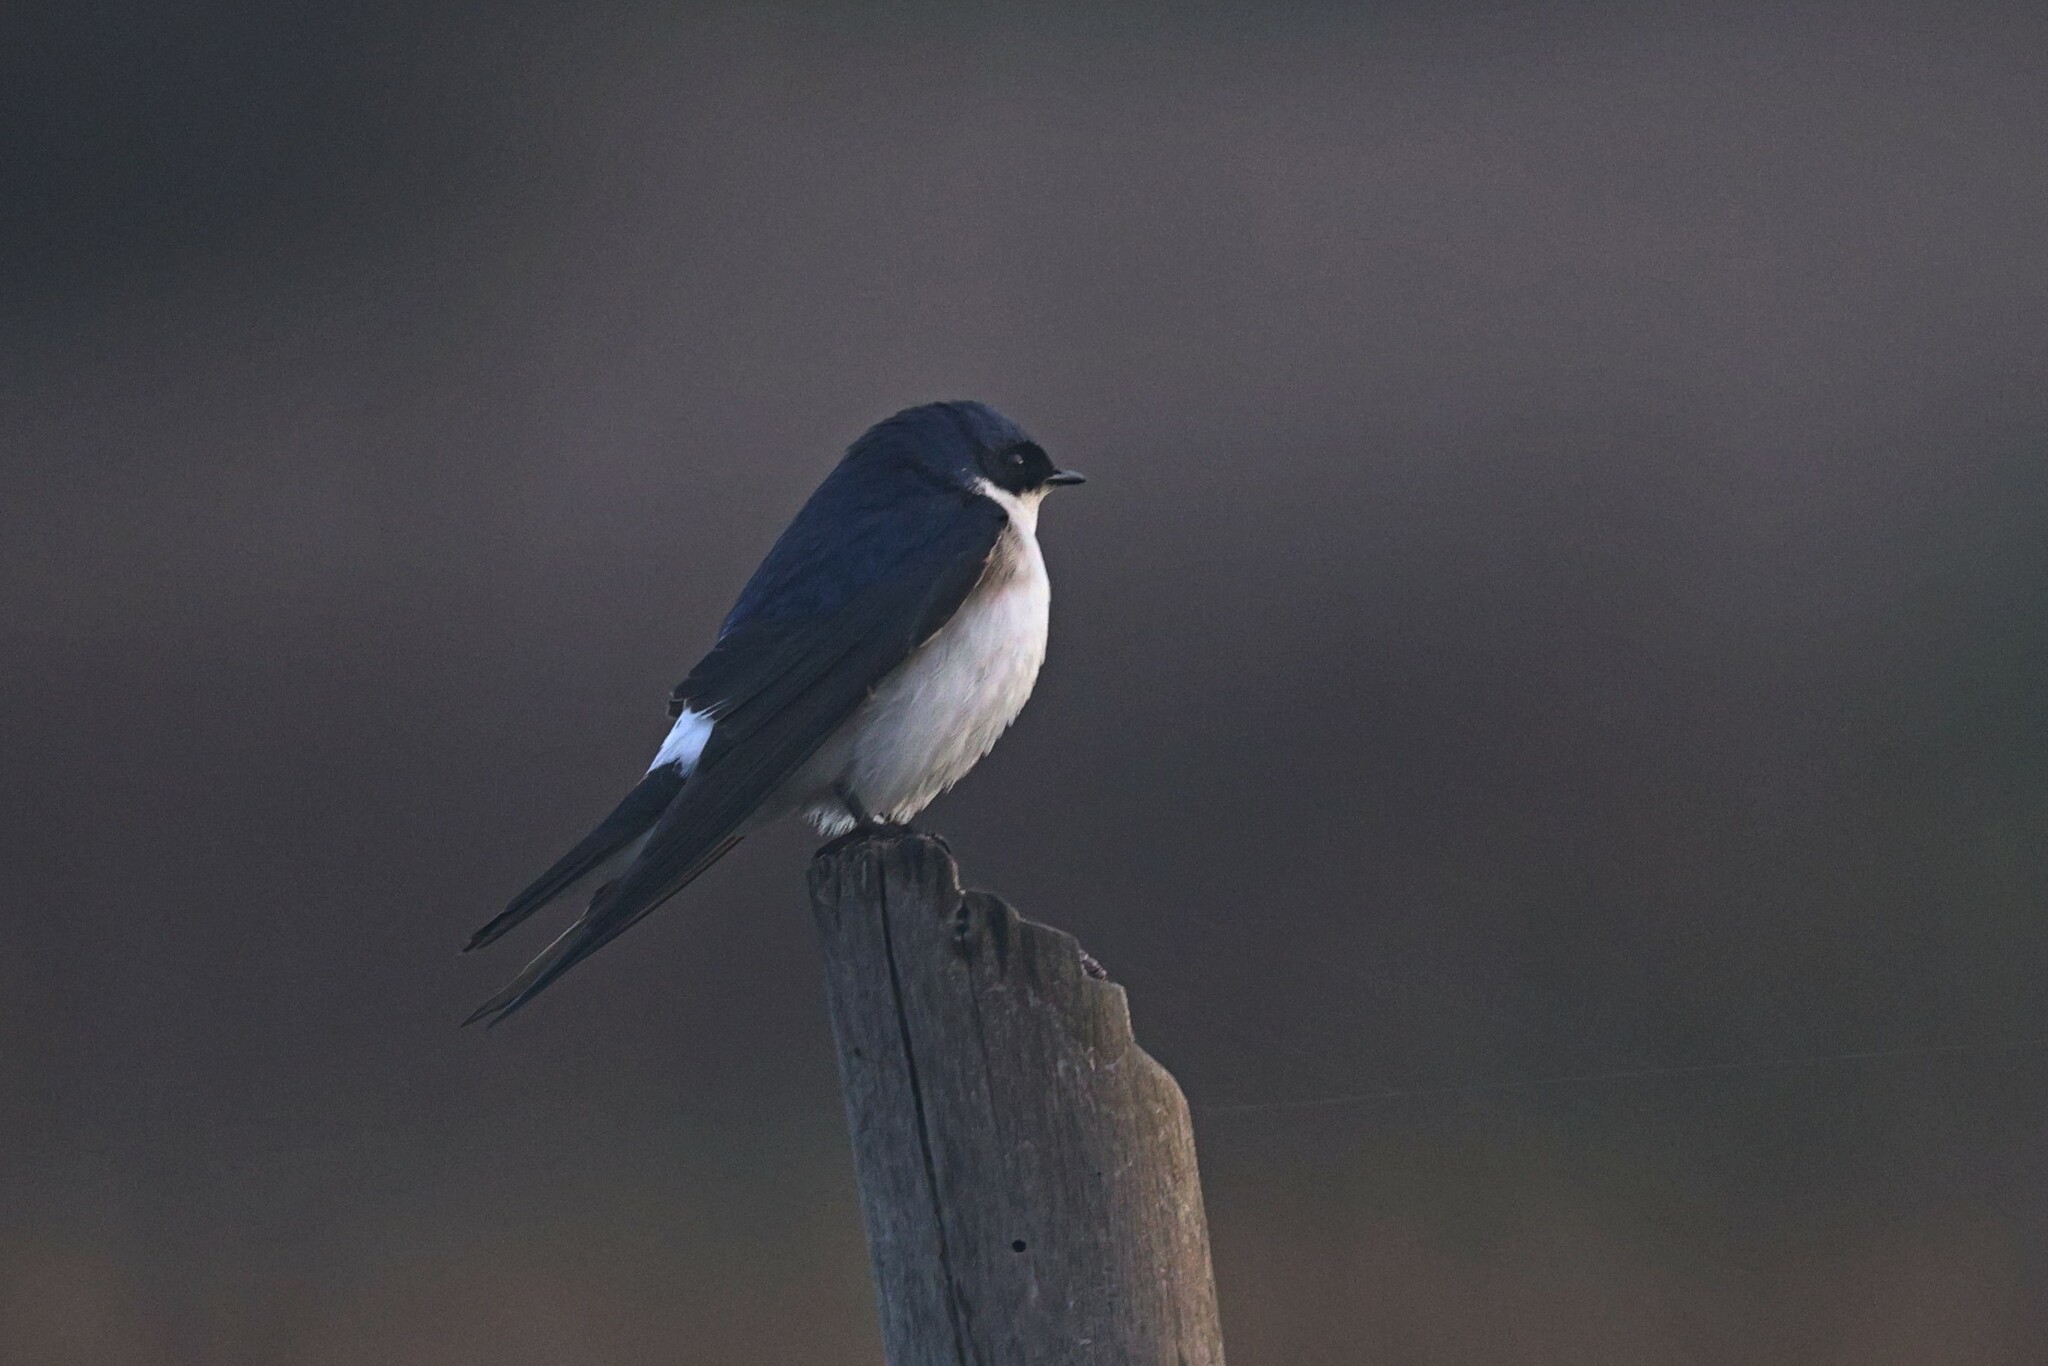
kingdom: Animalia
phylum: Chordata
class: Aves
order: Passeriformes
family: Hirundinidae
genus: Tachycineta
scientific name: Tachycineta leucopyga
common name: Chilean swallow
